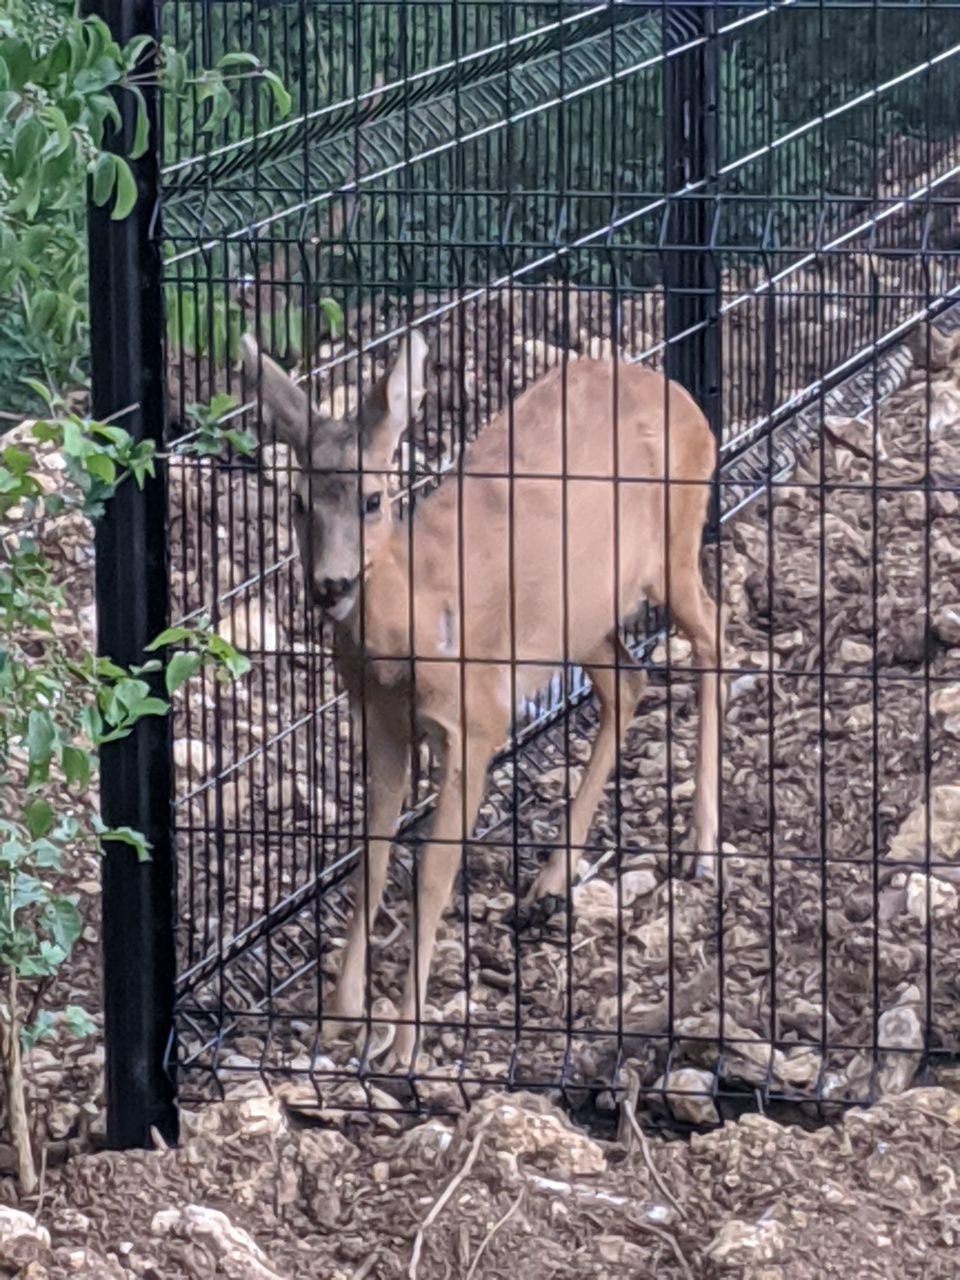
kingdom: Animalia
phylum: Chordata
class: Mammalia
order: Artiodactyla
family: Cervidae
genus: Capreolus
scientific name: Capreolus capreolus
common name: Western roe deer
